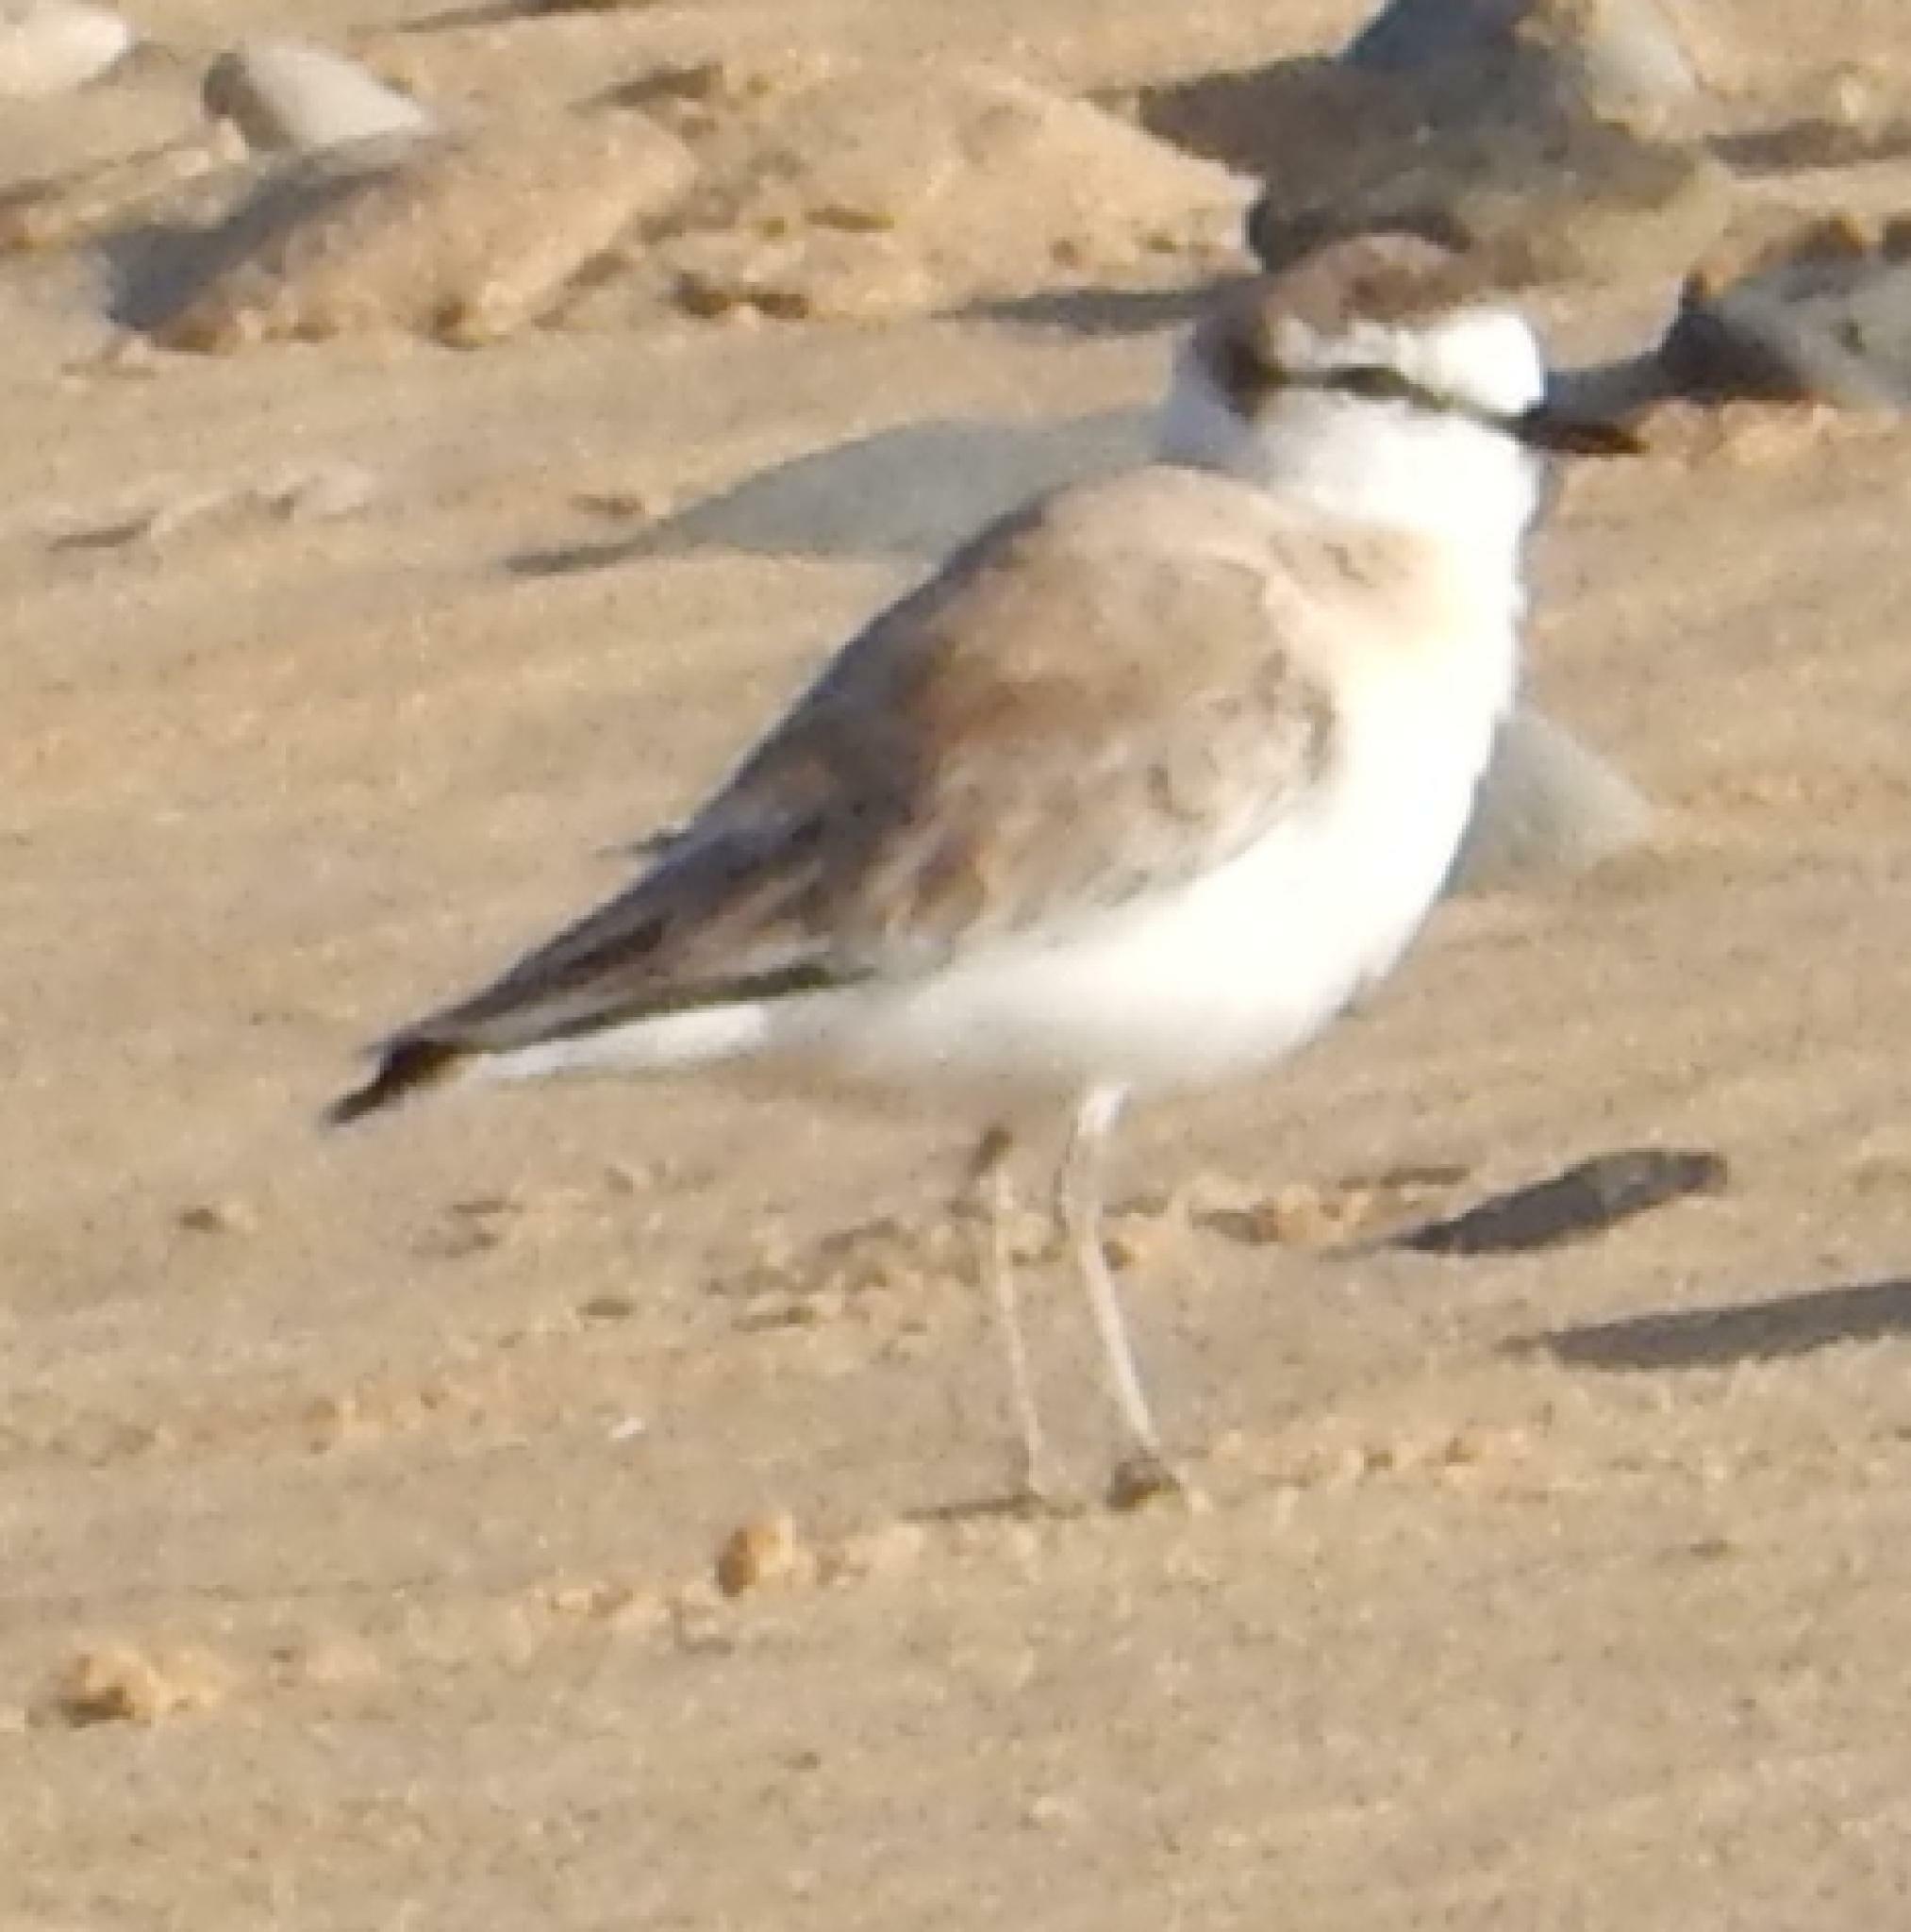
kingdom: Animalia
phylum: Chordata
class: Aves
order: Charadriiformes
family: Charadriidae
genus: Anarhynchus
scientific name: Anarhynchus
